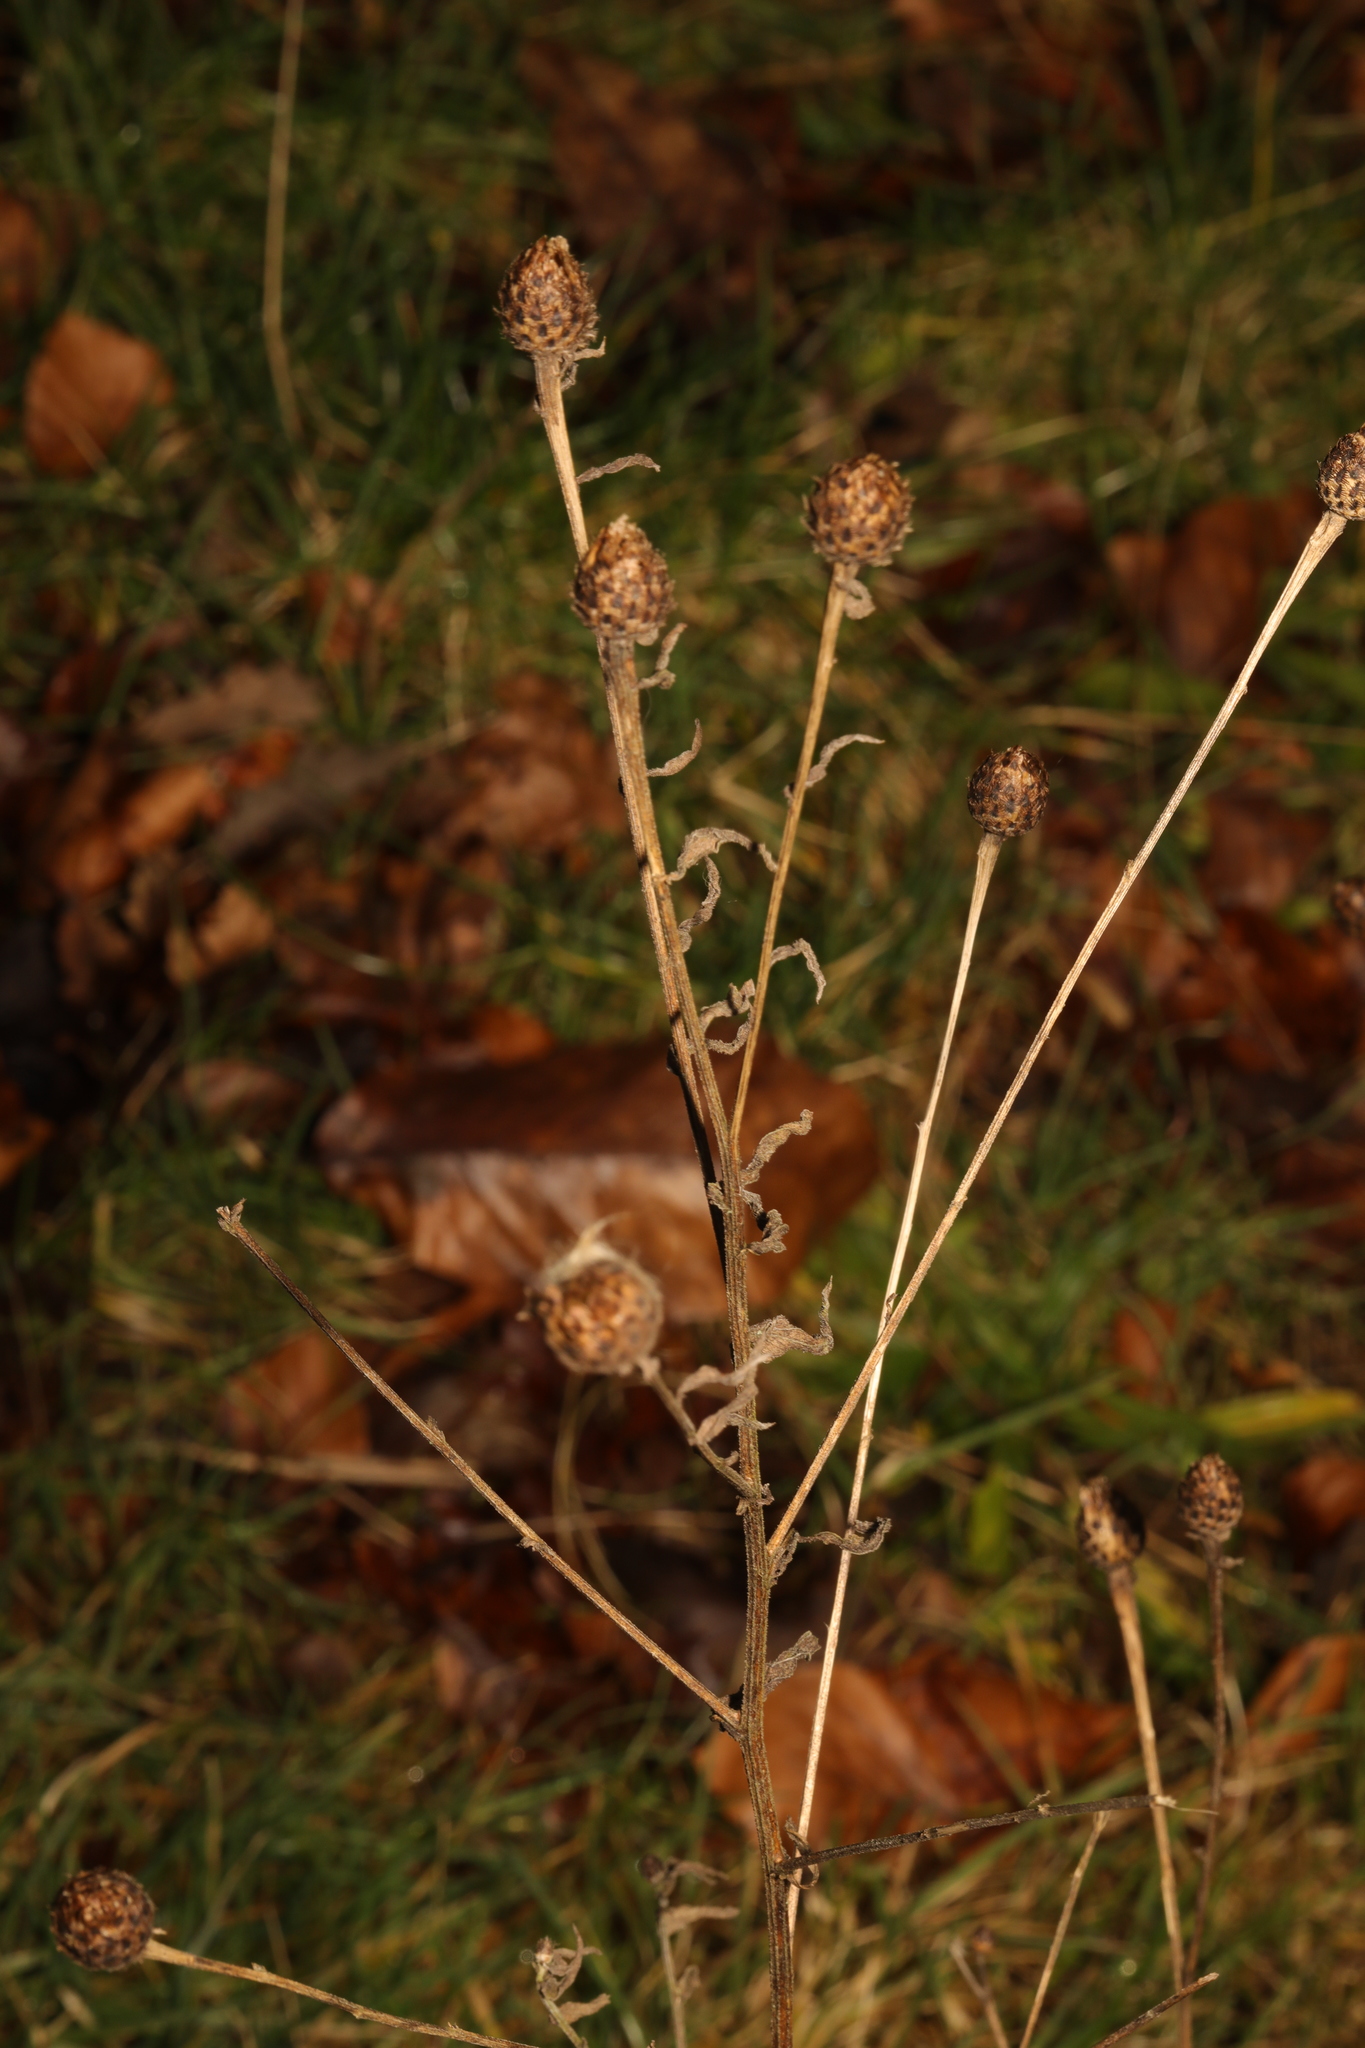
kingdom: Plantae
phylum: Tracheophyta
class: Magnoliopsida
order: Asterales
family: Asteraceae
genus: Centaurea
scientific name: Centaurea nigra
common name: Lesser knapweed
